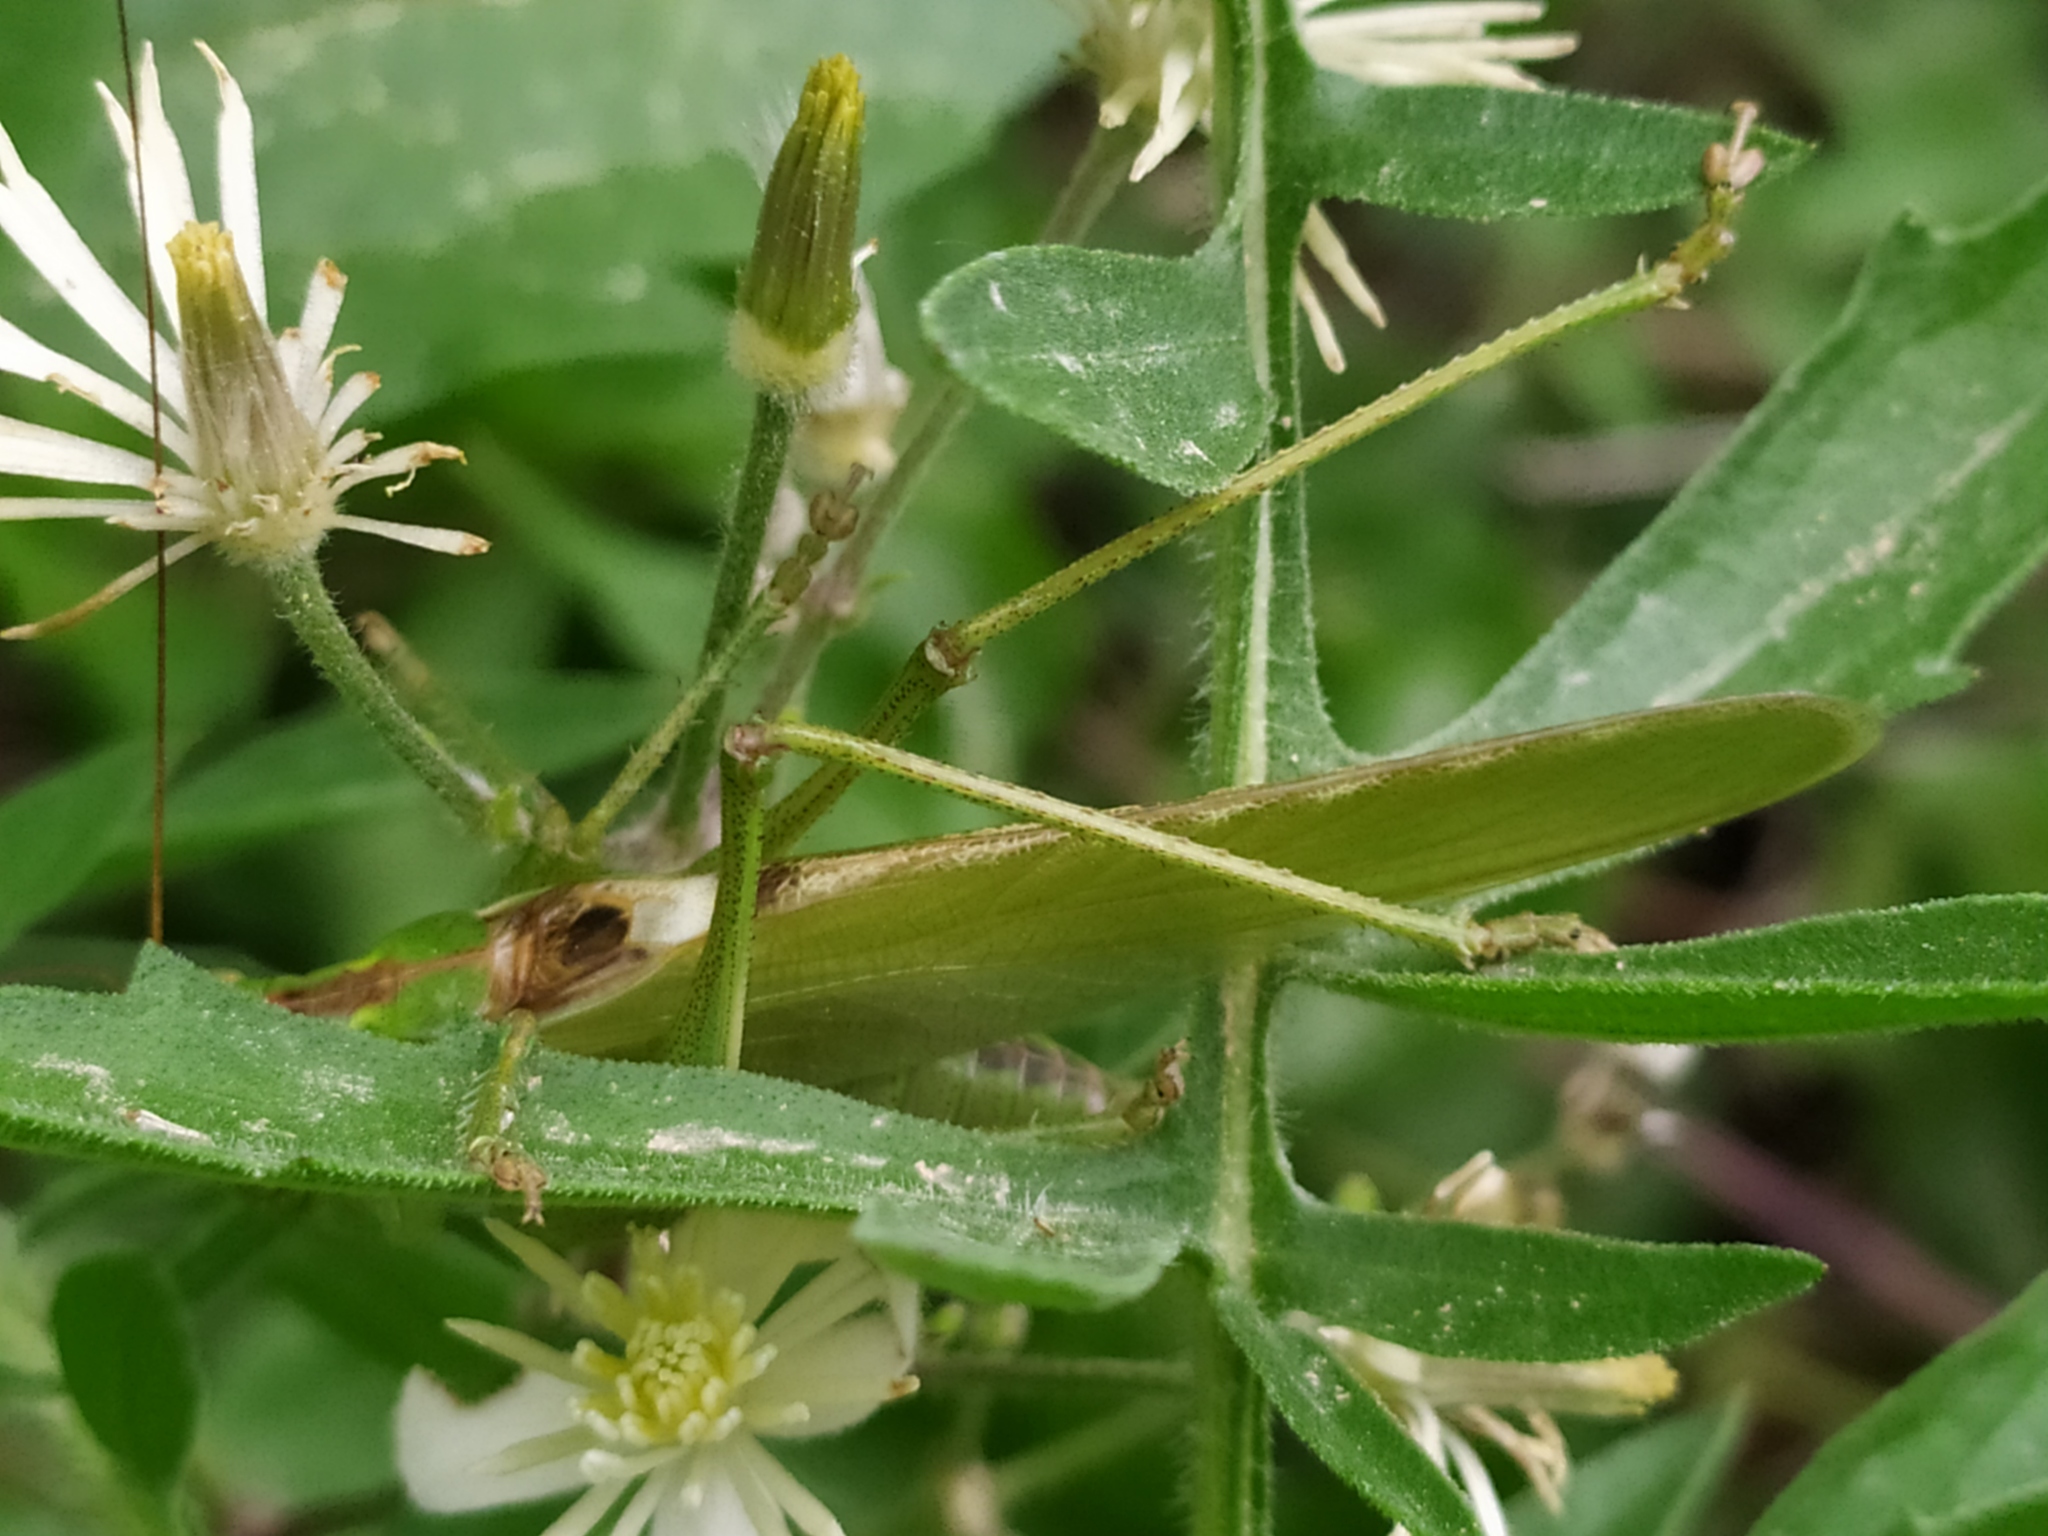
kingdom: Animalia
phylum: Arthropoda
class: Insecta
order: Orthoptera
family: Tettigoniidae
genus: Tettigonia
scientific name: Tettigonia viridissima
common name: Great green bush-cricket
